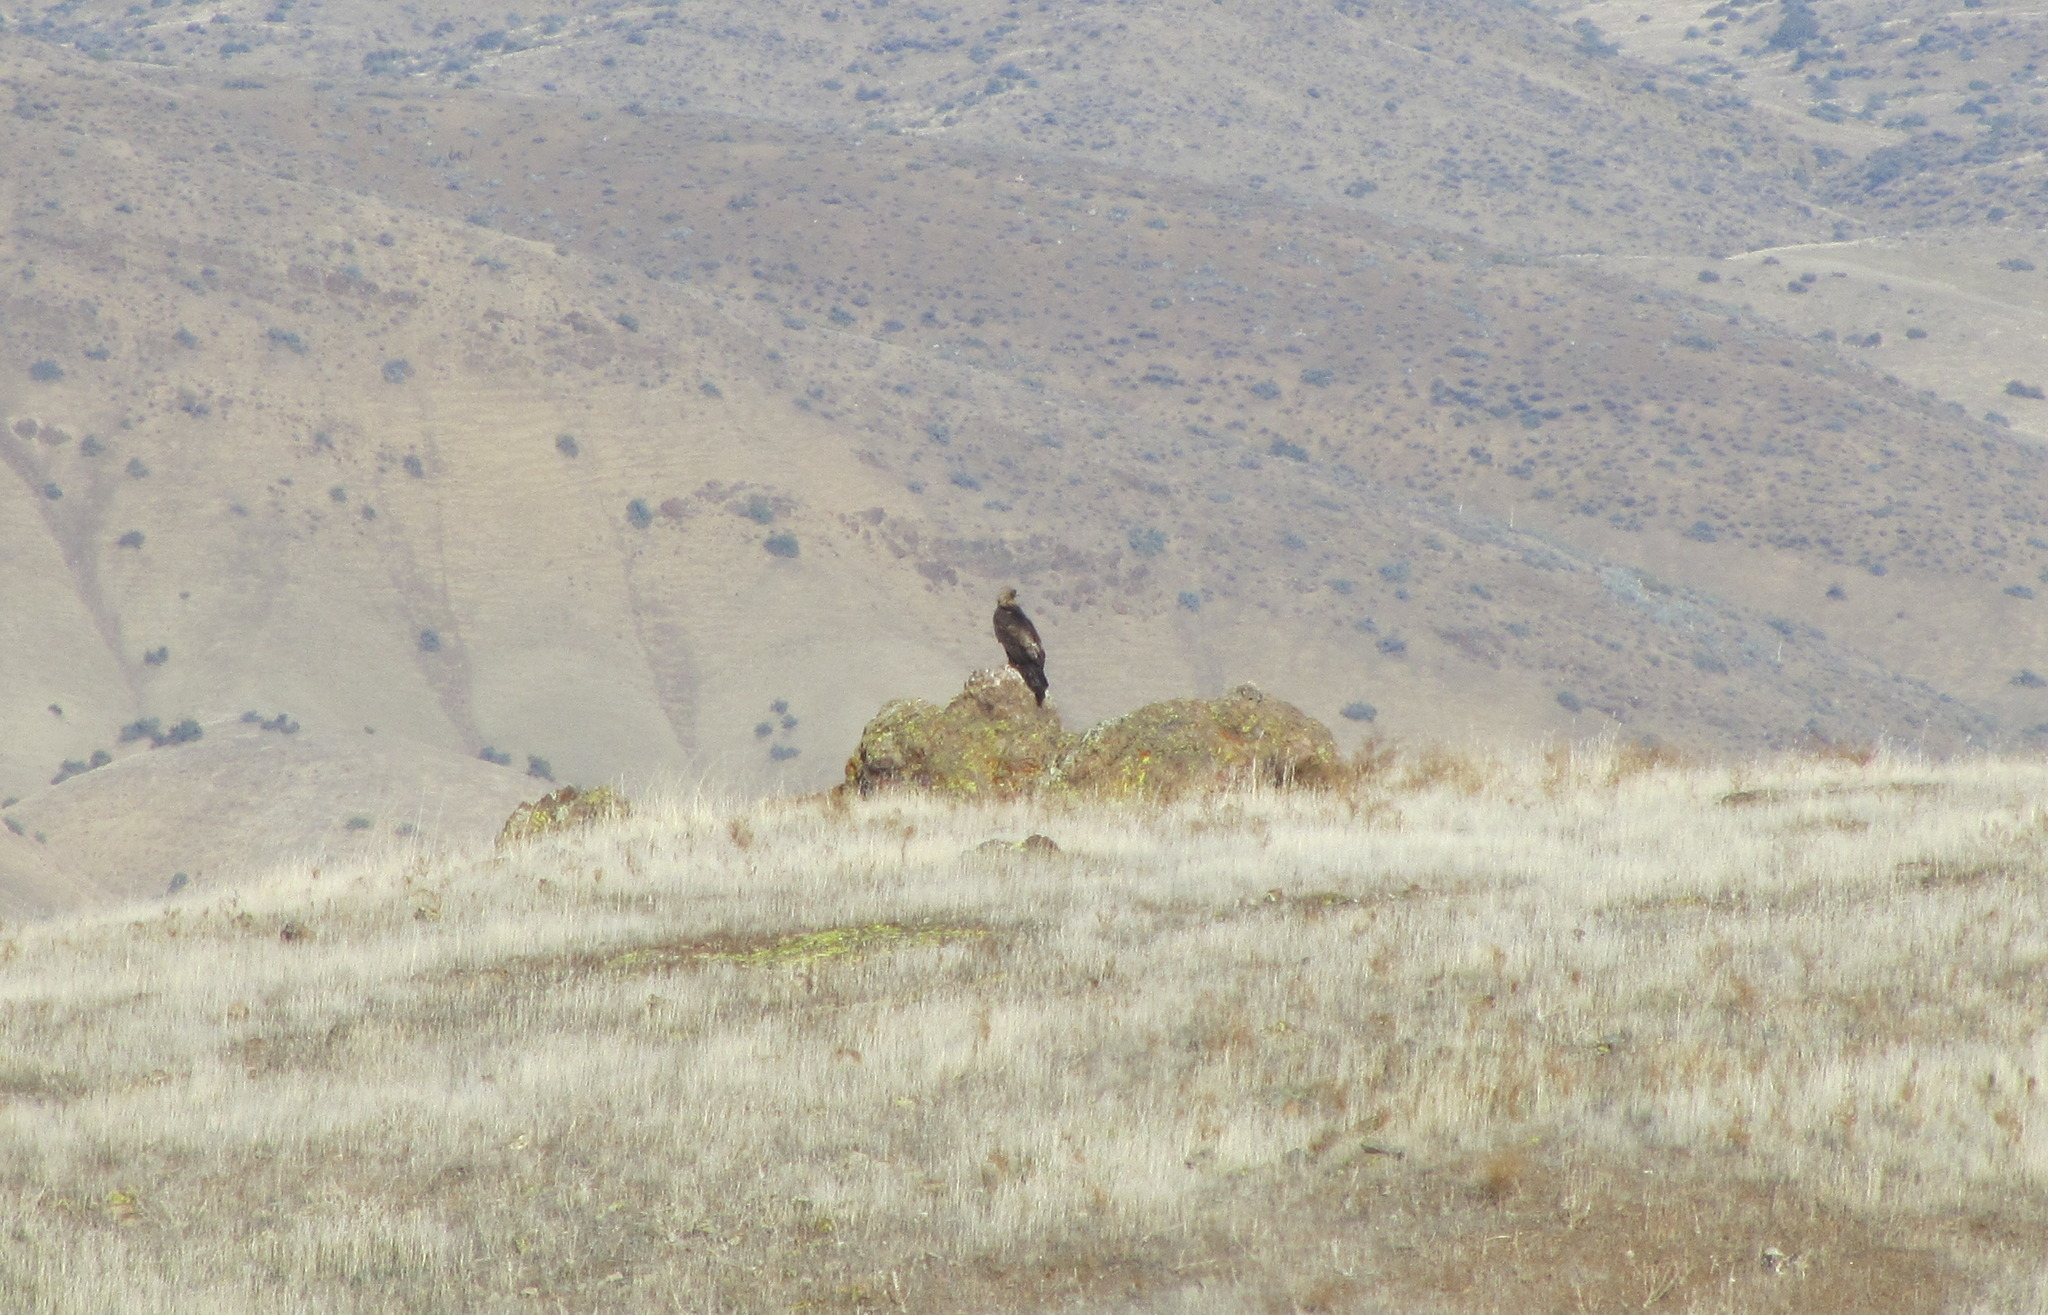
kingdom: Animalia
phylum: Chordata
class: Aves
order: Accipitriformes
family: Accipitridae
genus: Aquila
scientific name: Aquila chrysaetos
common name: Golden eagle
